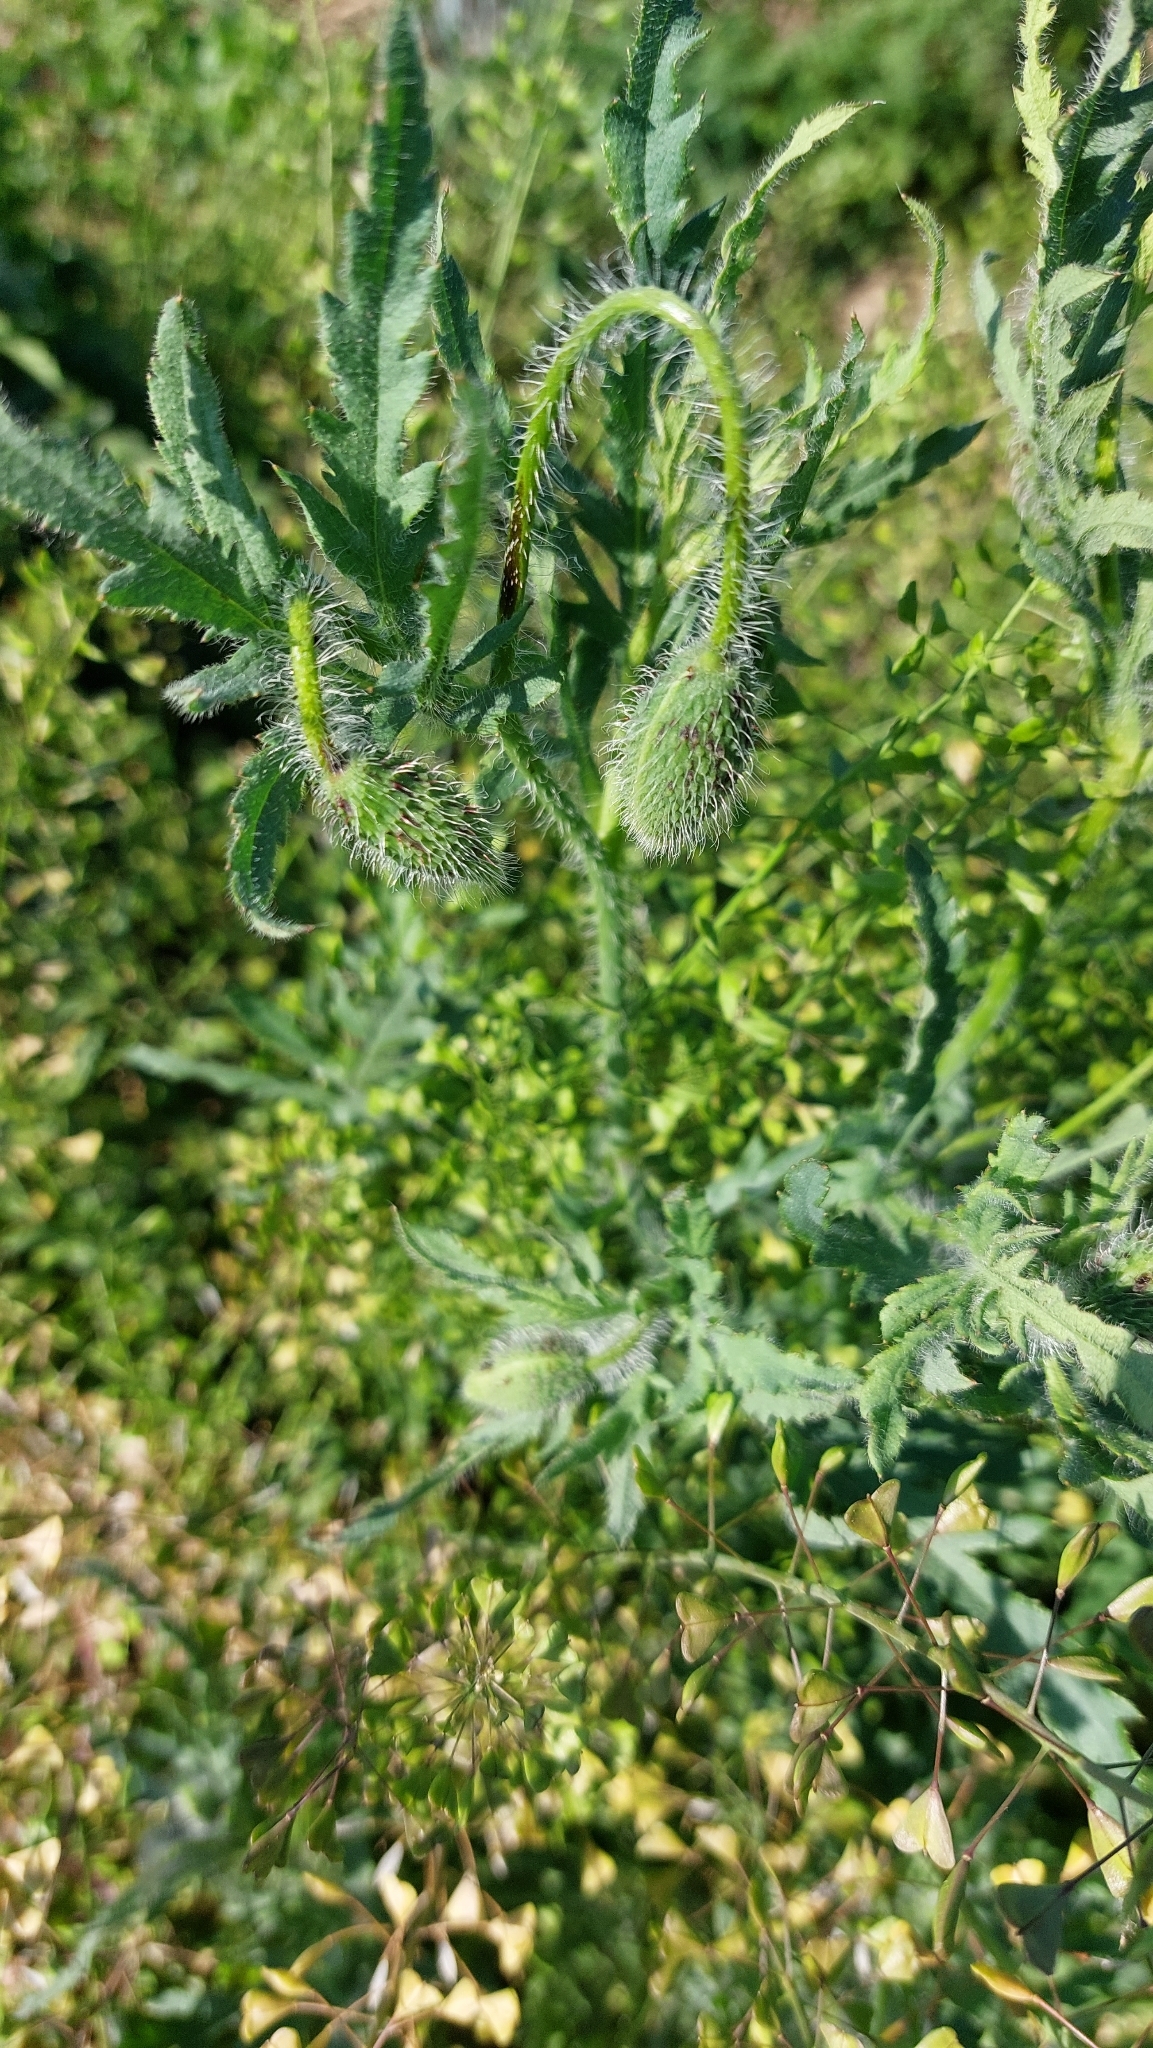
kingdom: Plantae
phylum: Tracheophyta
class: Magnoliopsida
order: Ranunculales
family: Papaveraceae
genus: Papaver
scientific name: Papaver rhoeas
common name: Corn poppy
